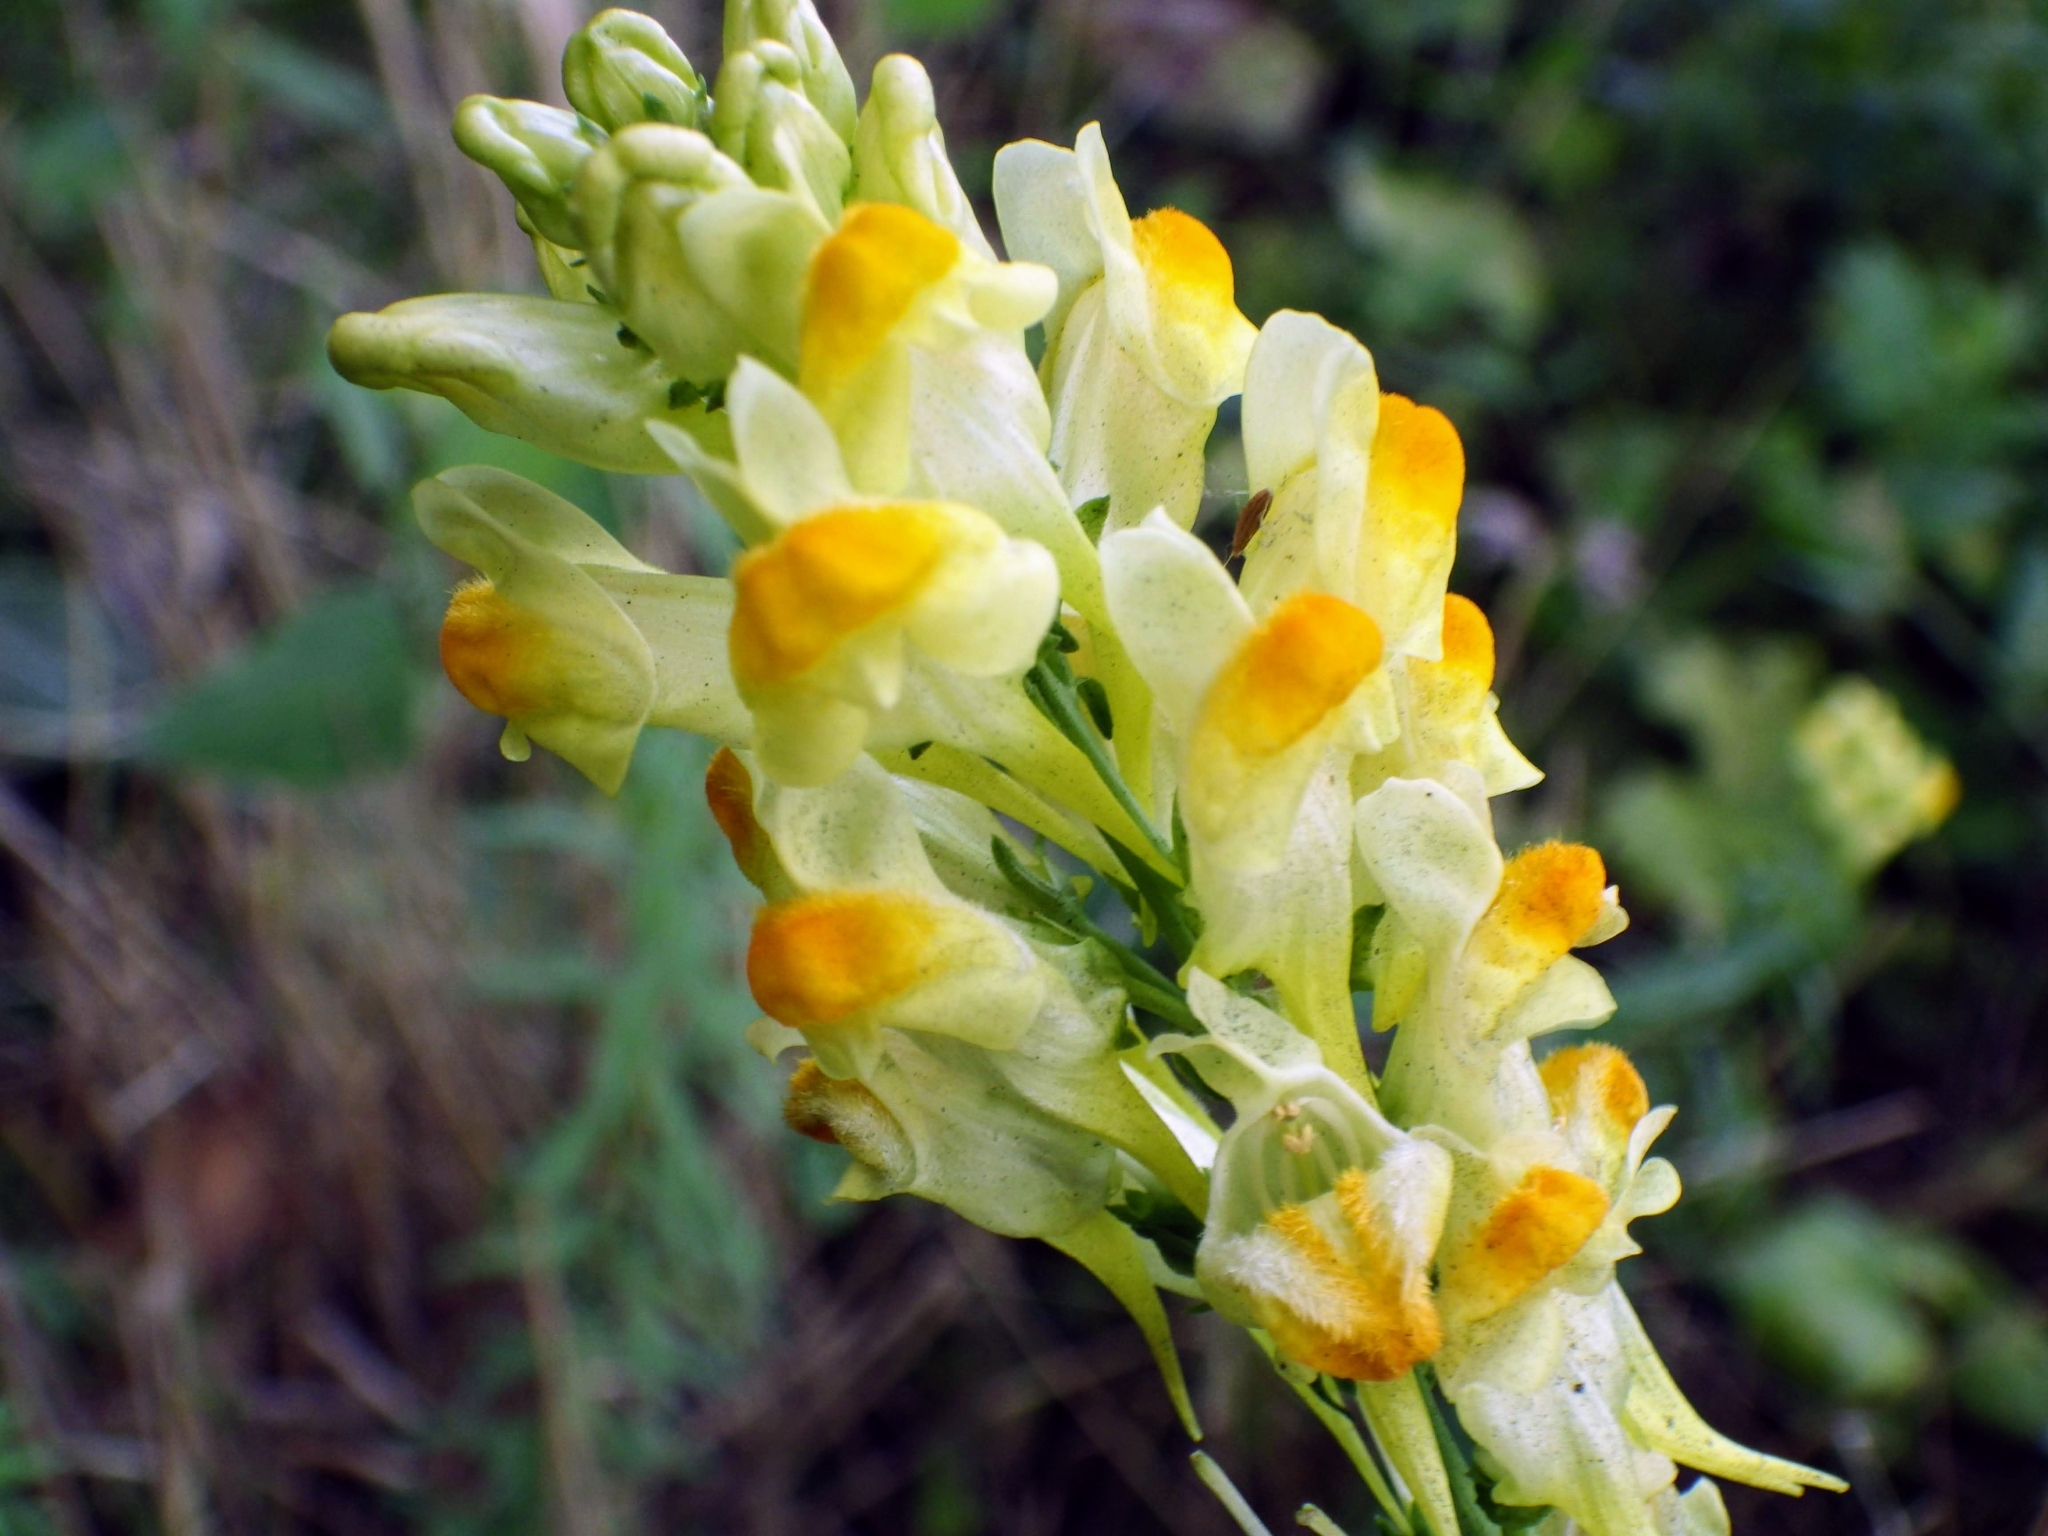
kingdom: Plantae
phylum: Tracheophyta
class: Magnoliopsida
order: Lamiales
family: Plantaginaceae
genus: Linaria
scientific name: Linaria vulgaris
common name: Butter and eggs
